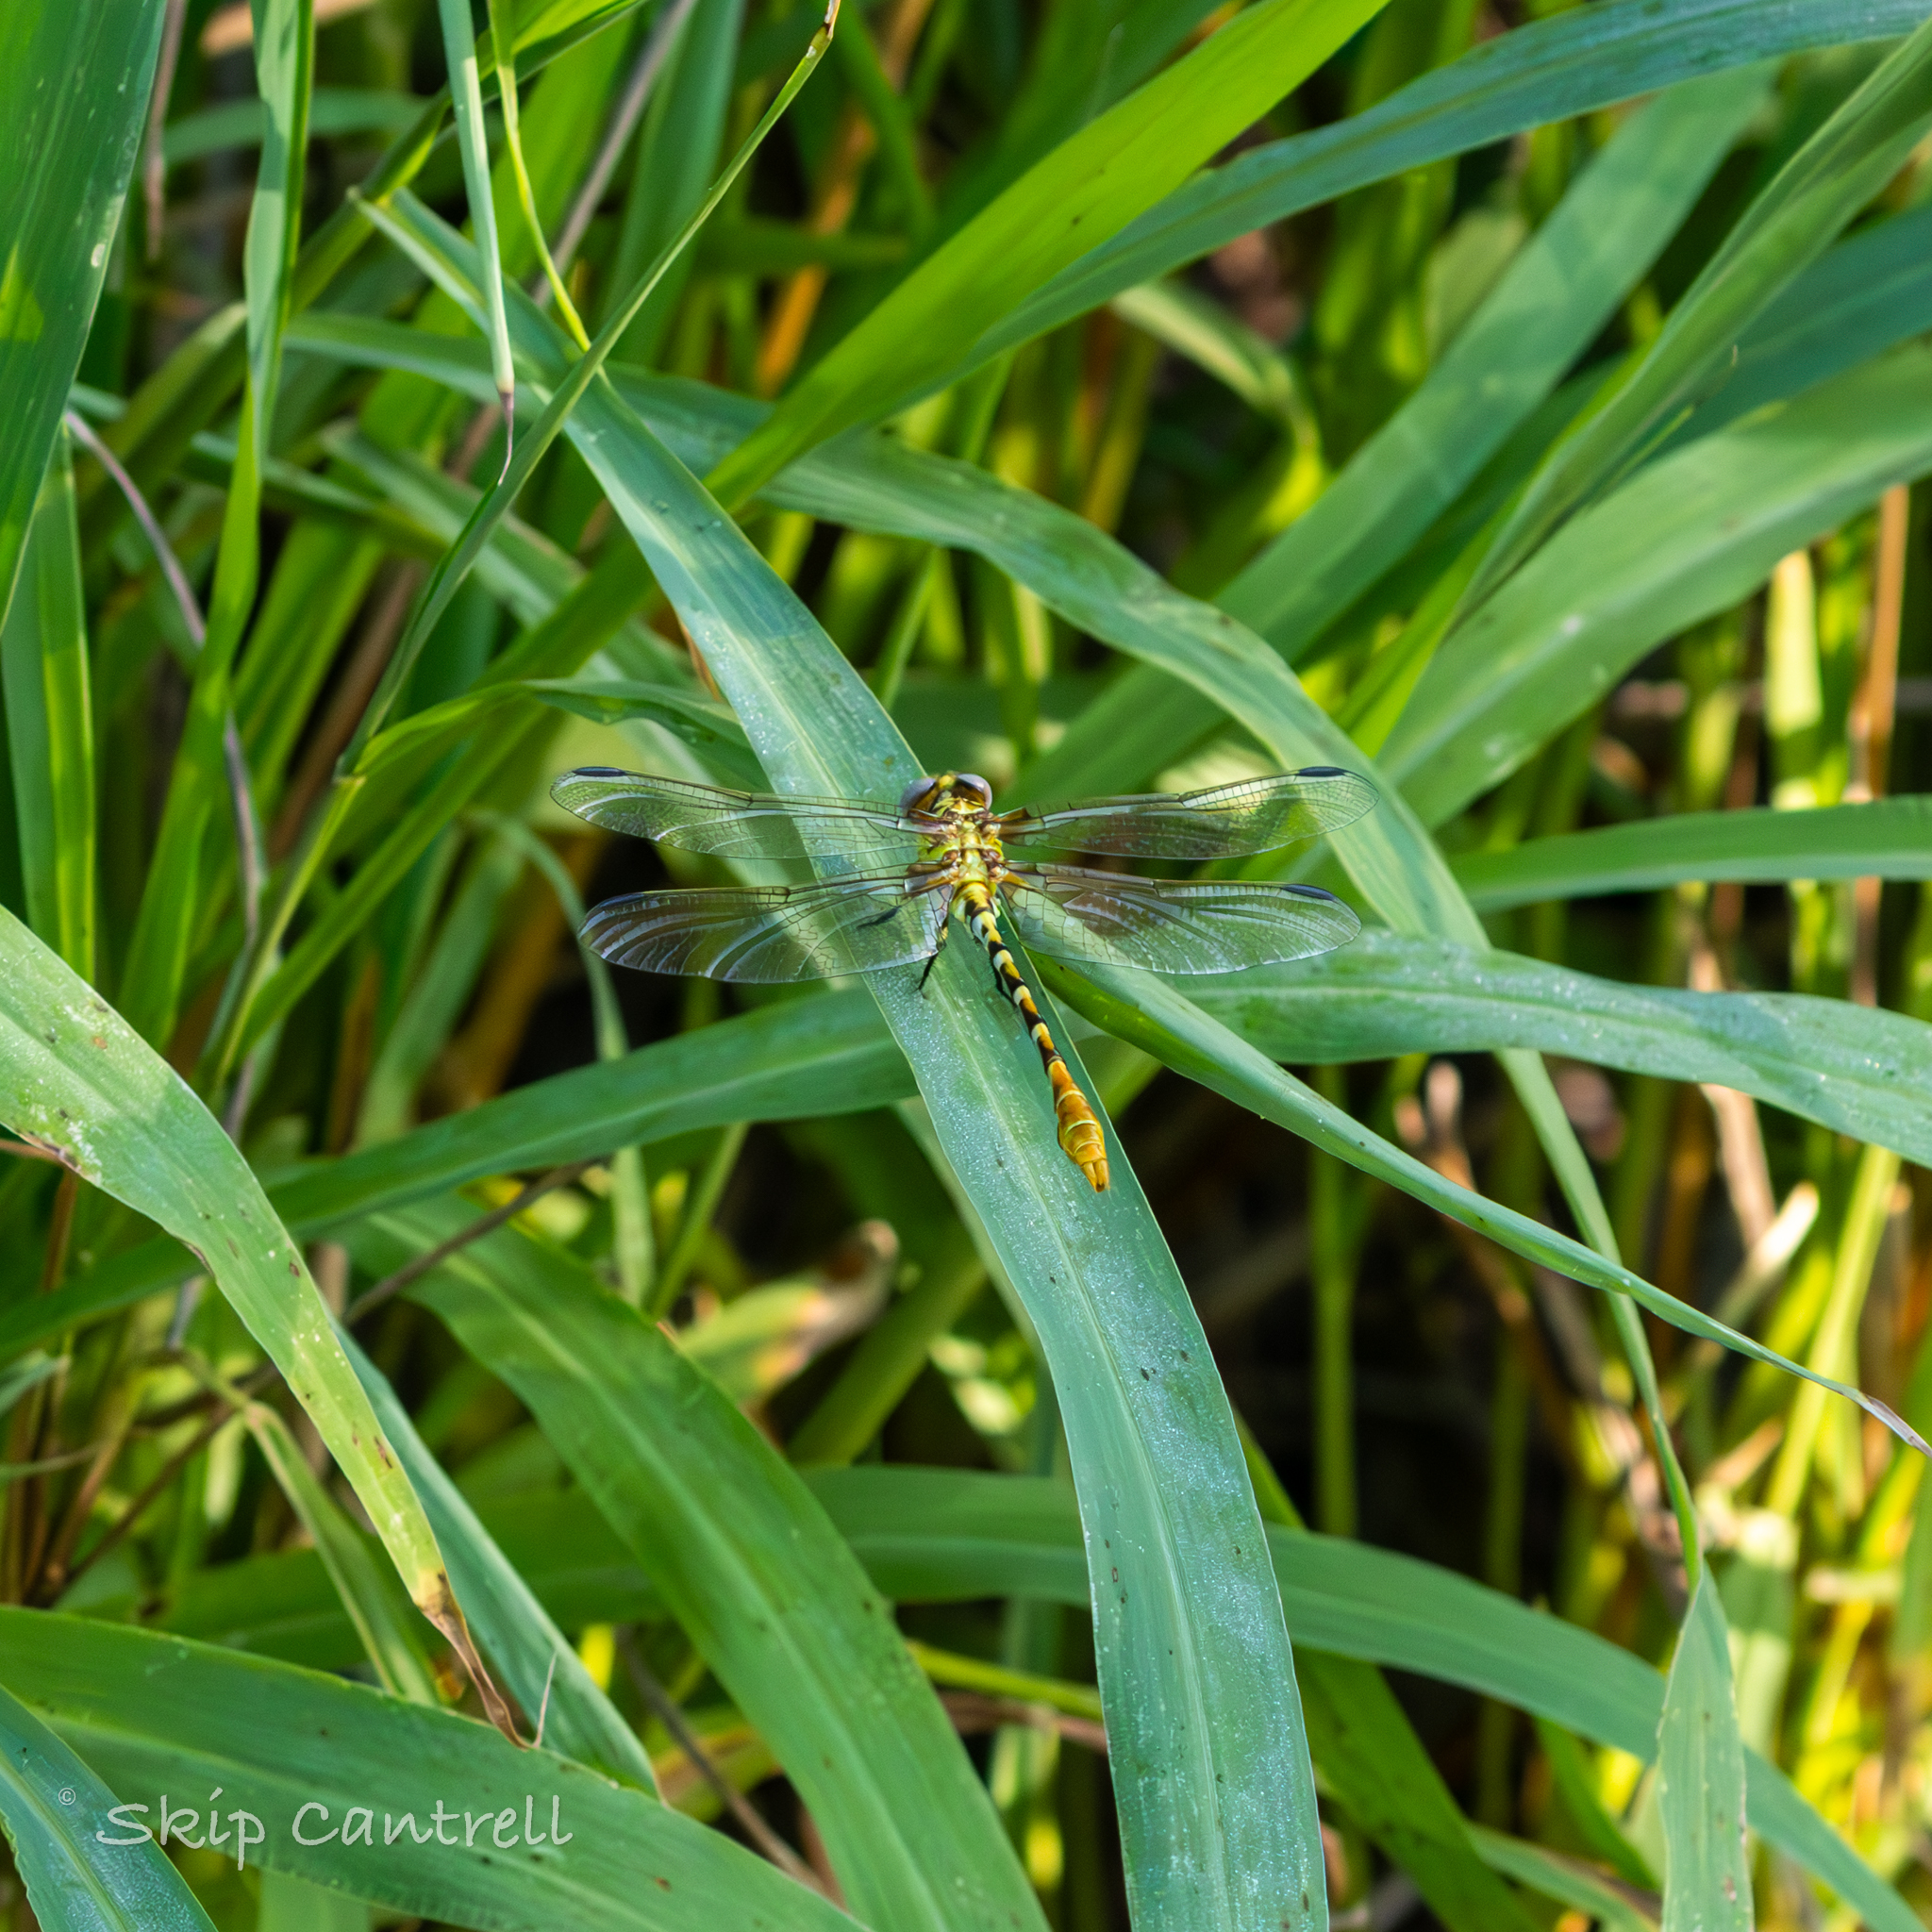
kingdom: Animalia
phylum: Arthropoda
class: Insecta
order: Odonata
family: Gomphidae
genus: Erpetogomphus
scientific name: Erpetogomphus designatus
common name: Eastern ringtail
